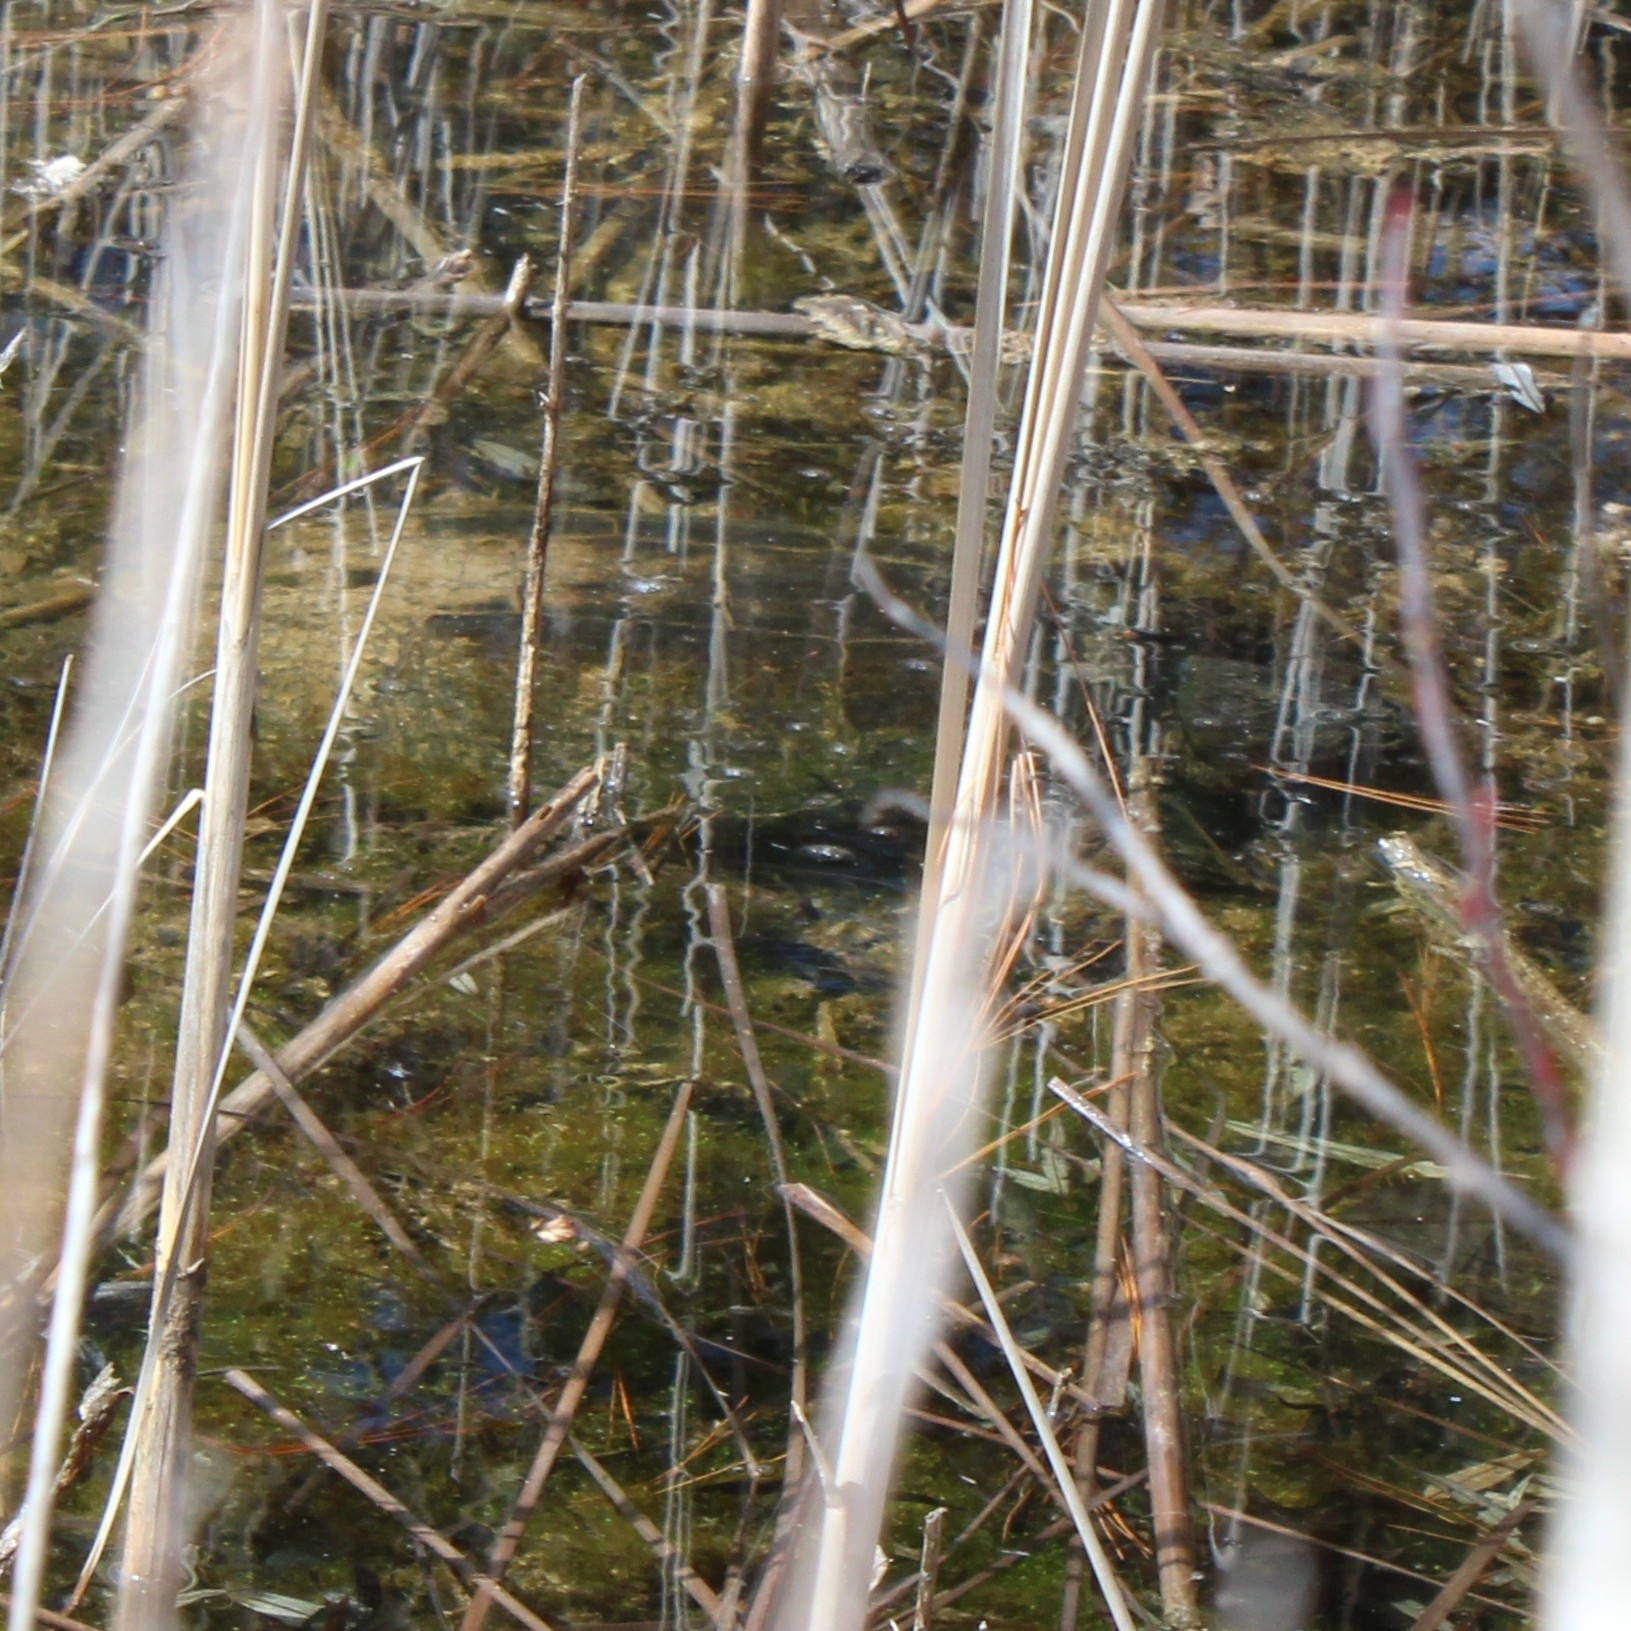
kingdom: Animalia
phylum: Chordata
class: Testudines
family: Chelydridae
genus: Chelydra
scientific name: Chelydra serpentina
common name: Common snapping turtle
